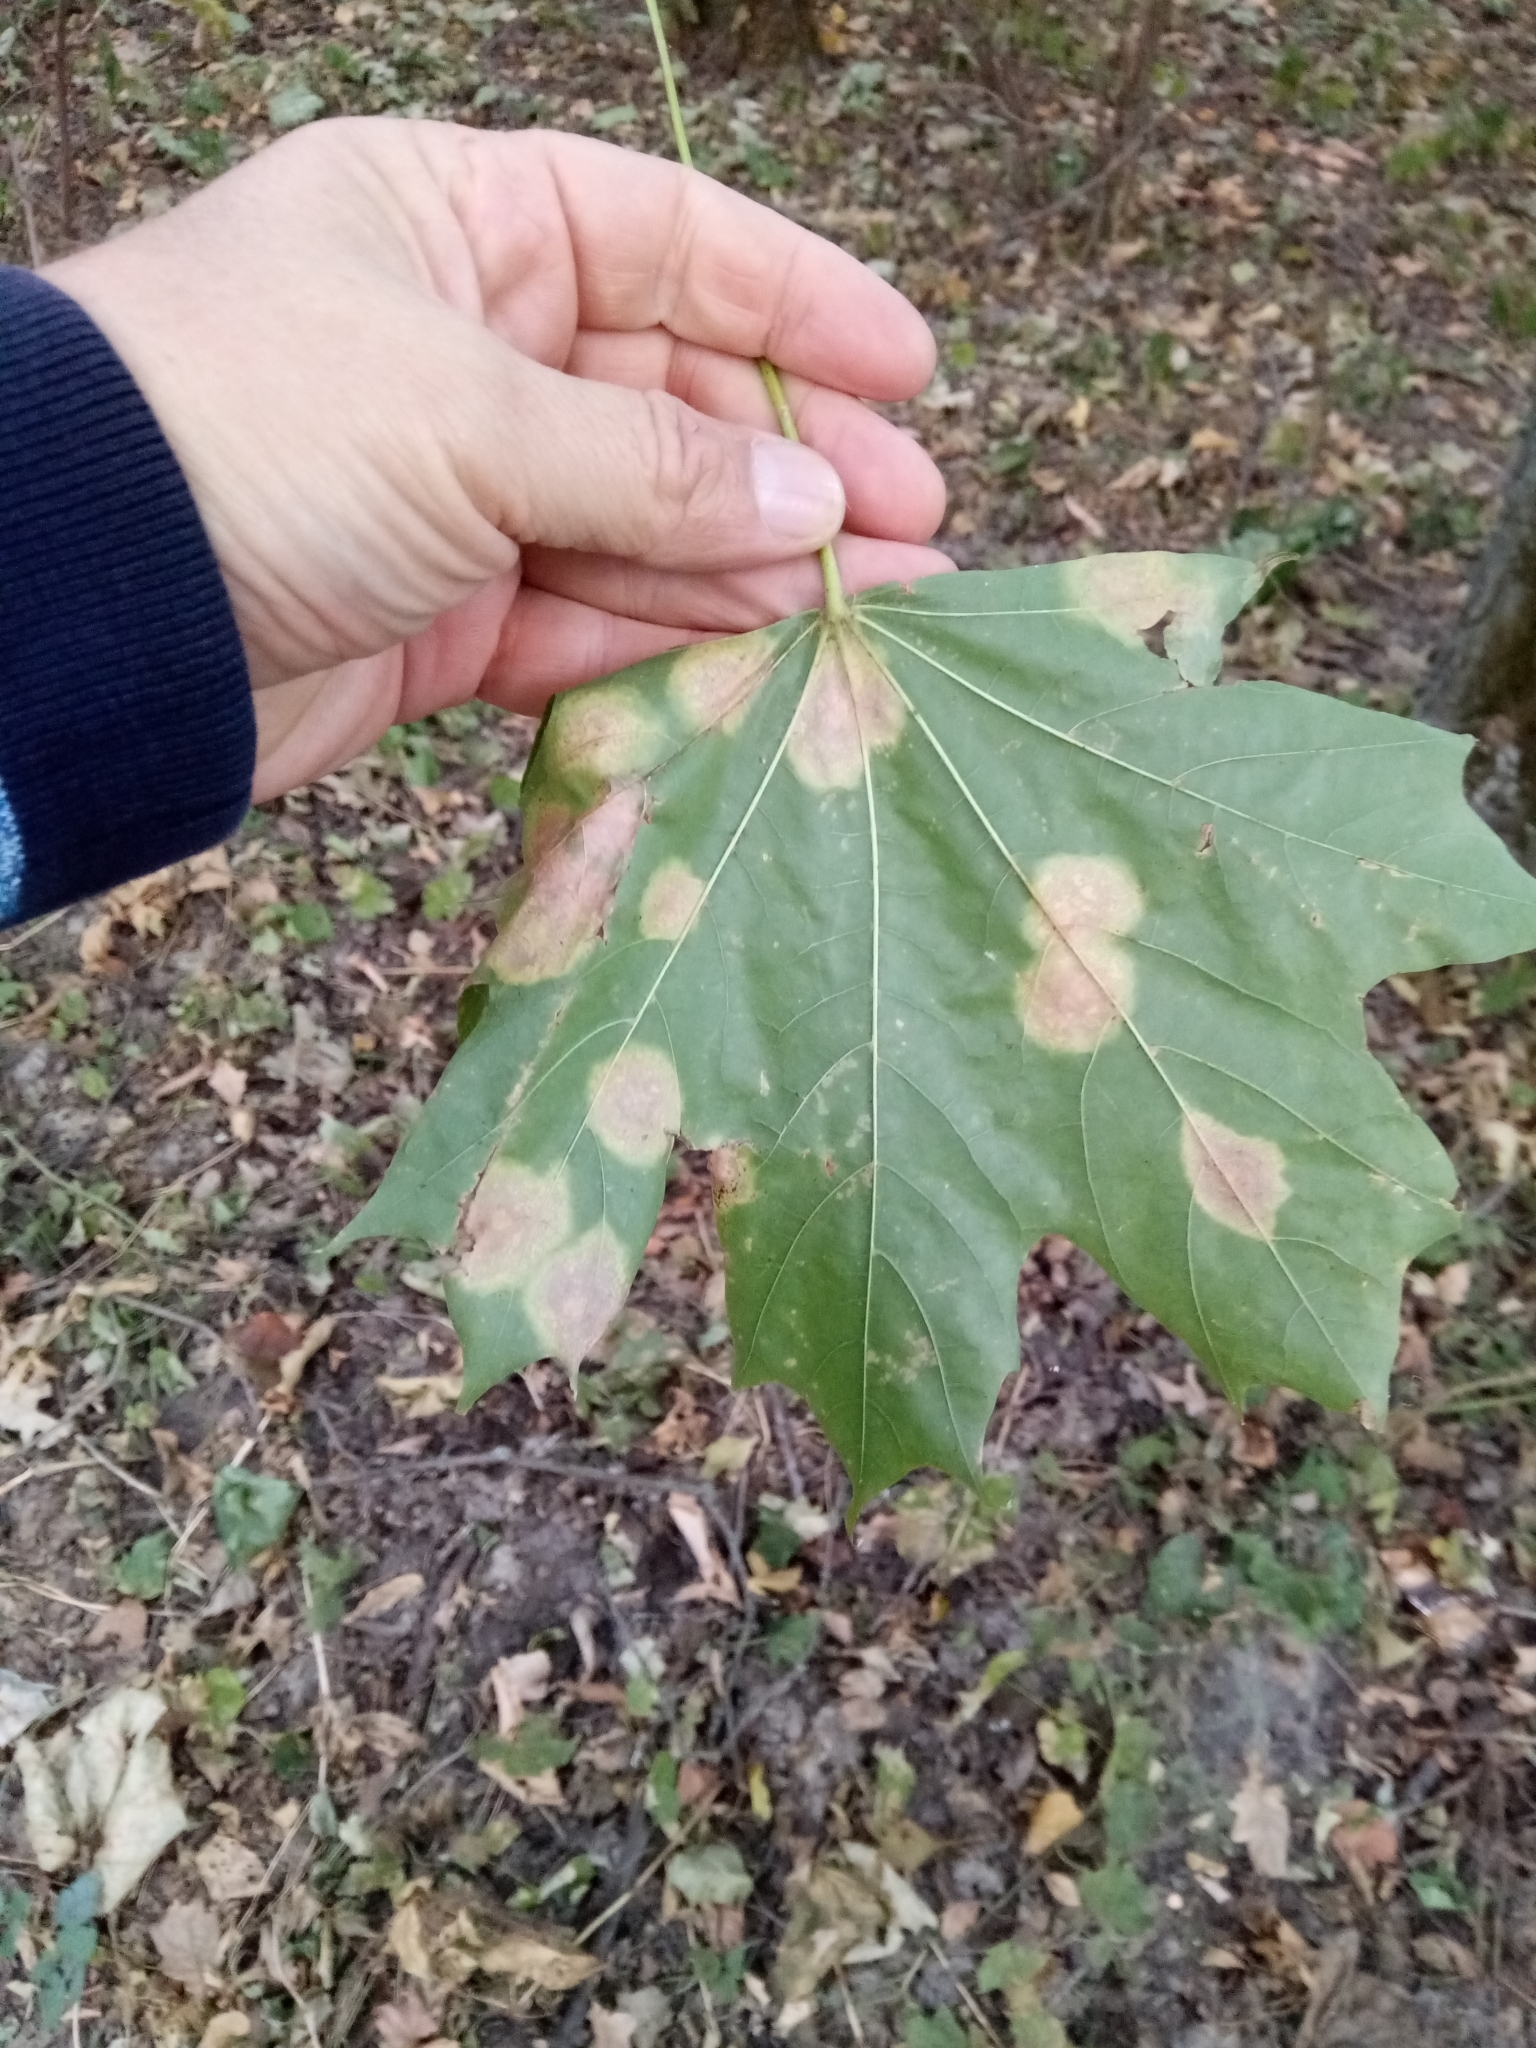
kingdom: Plantae
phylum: Tracheophyta
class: Magnoliopsida
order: Sapindales
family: Sapindaceae
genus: Acer
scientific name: Acer platanoides
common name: Norway maple
